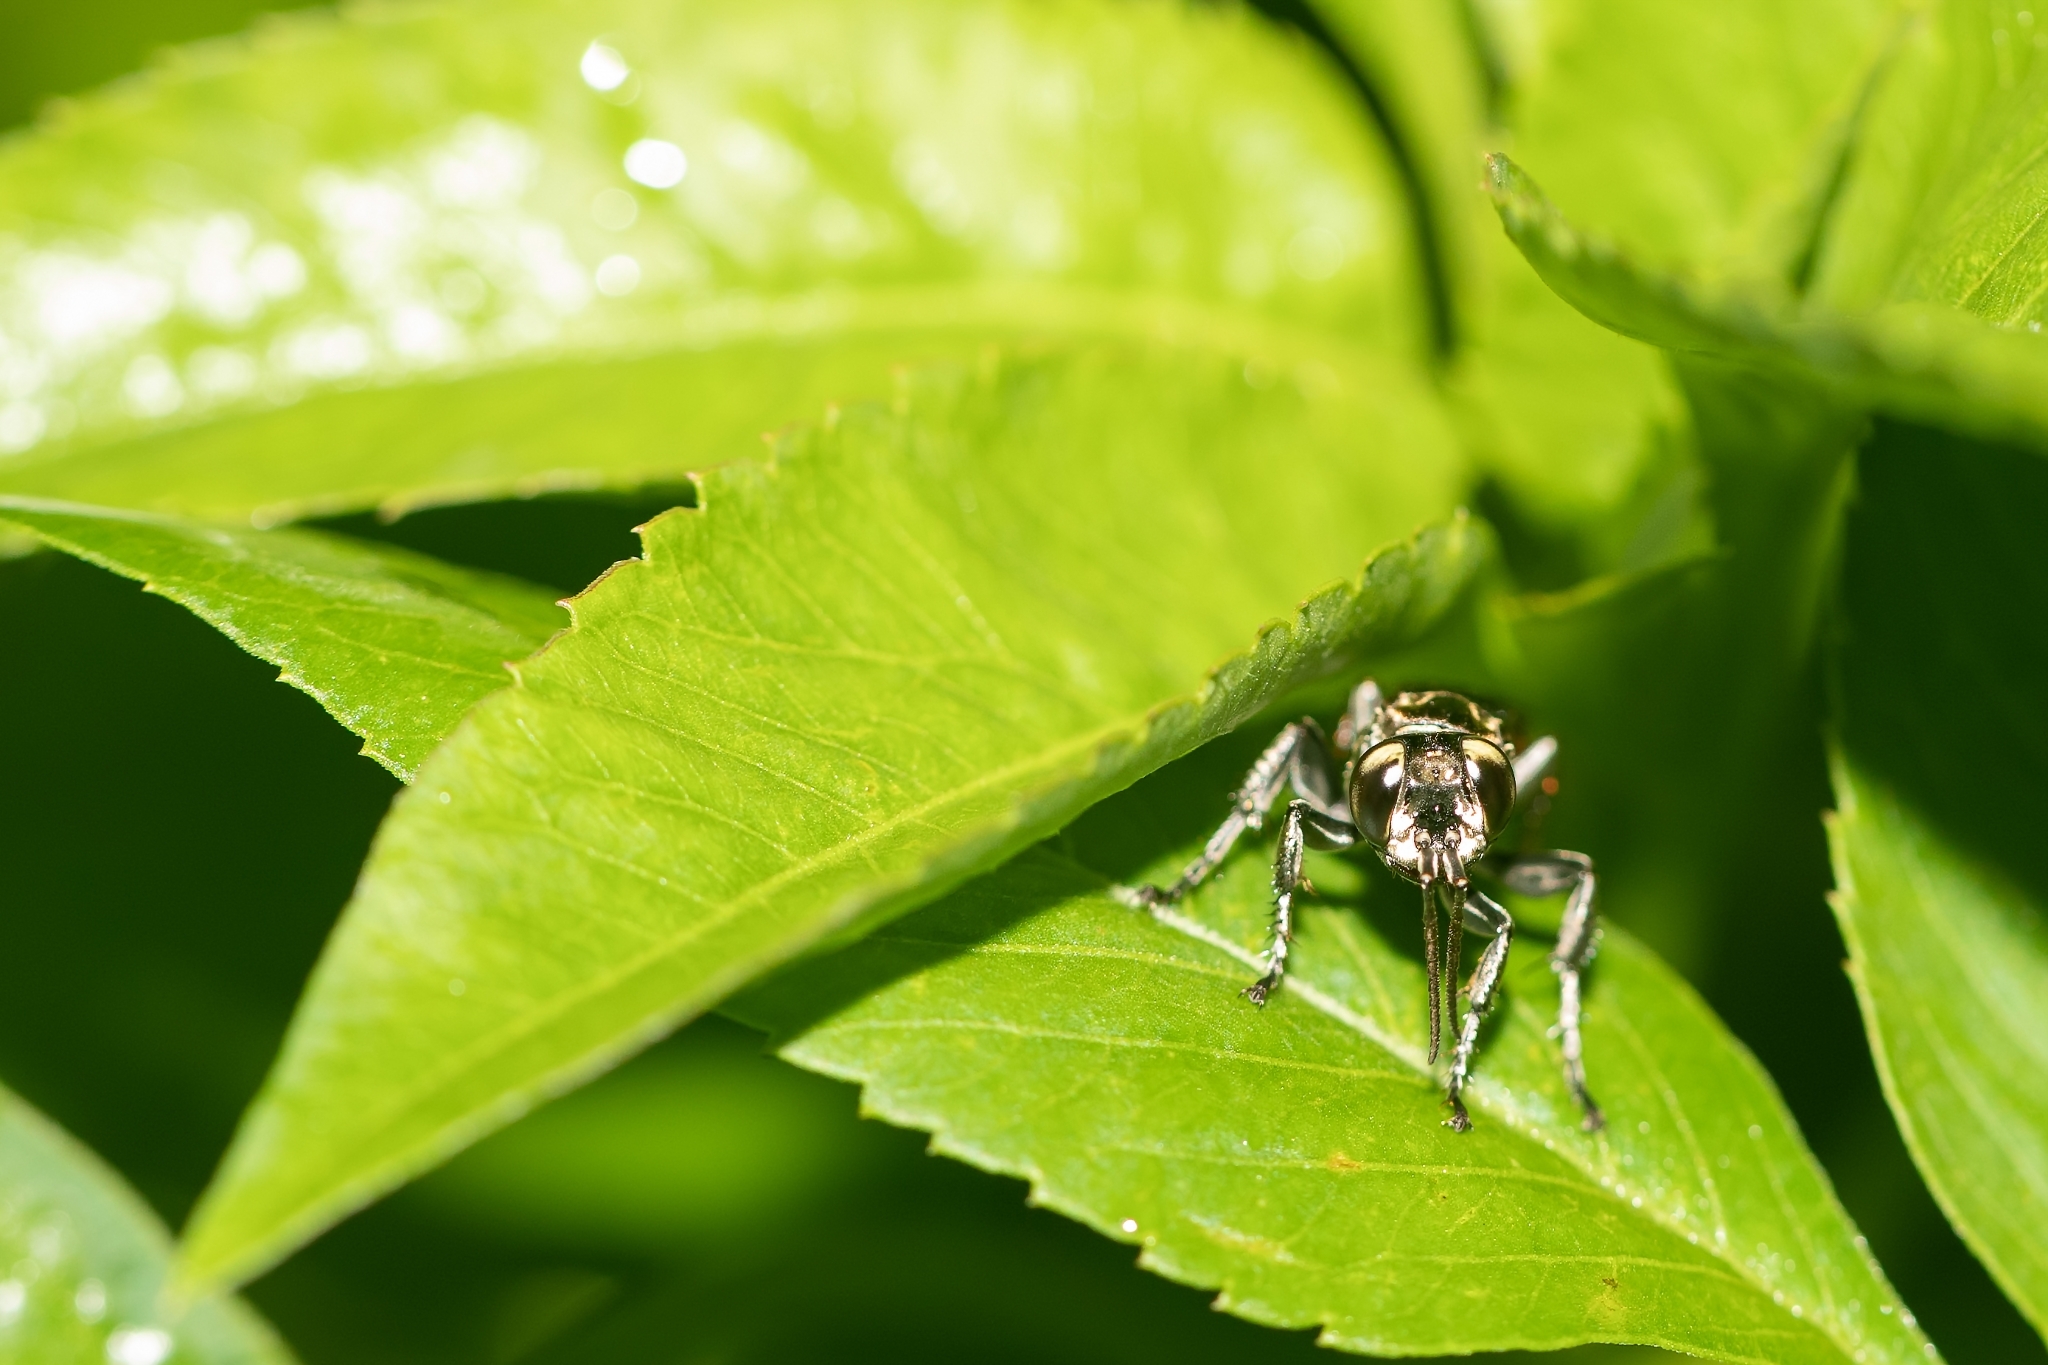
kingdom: Animalia
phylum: Arthropoda
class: Insecta
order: Hymenoptera
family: Crabronidae
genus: Larra
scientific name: Larra bicolor
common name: Wasp
